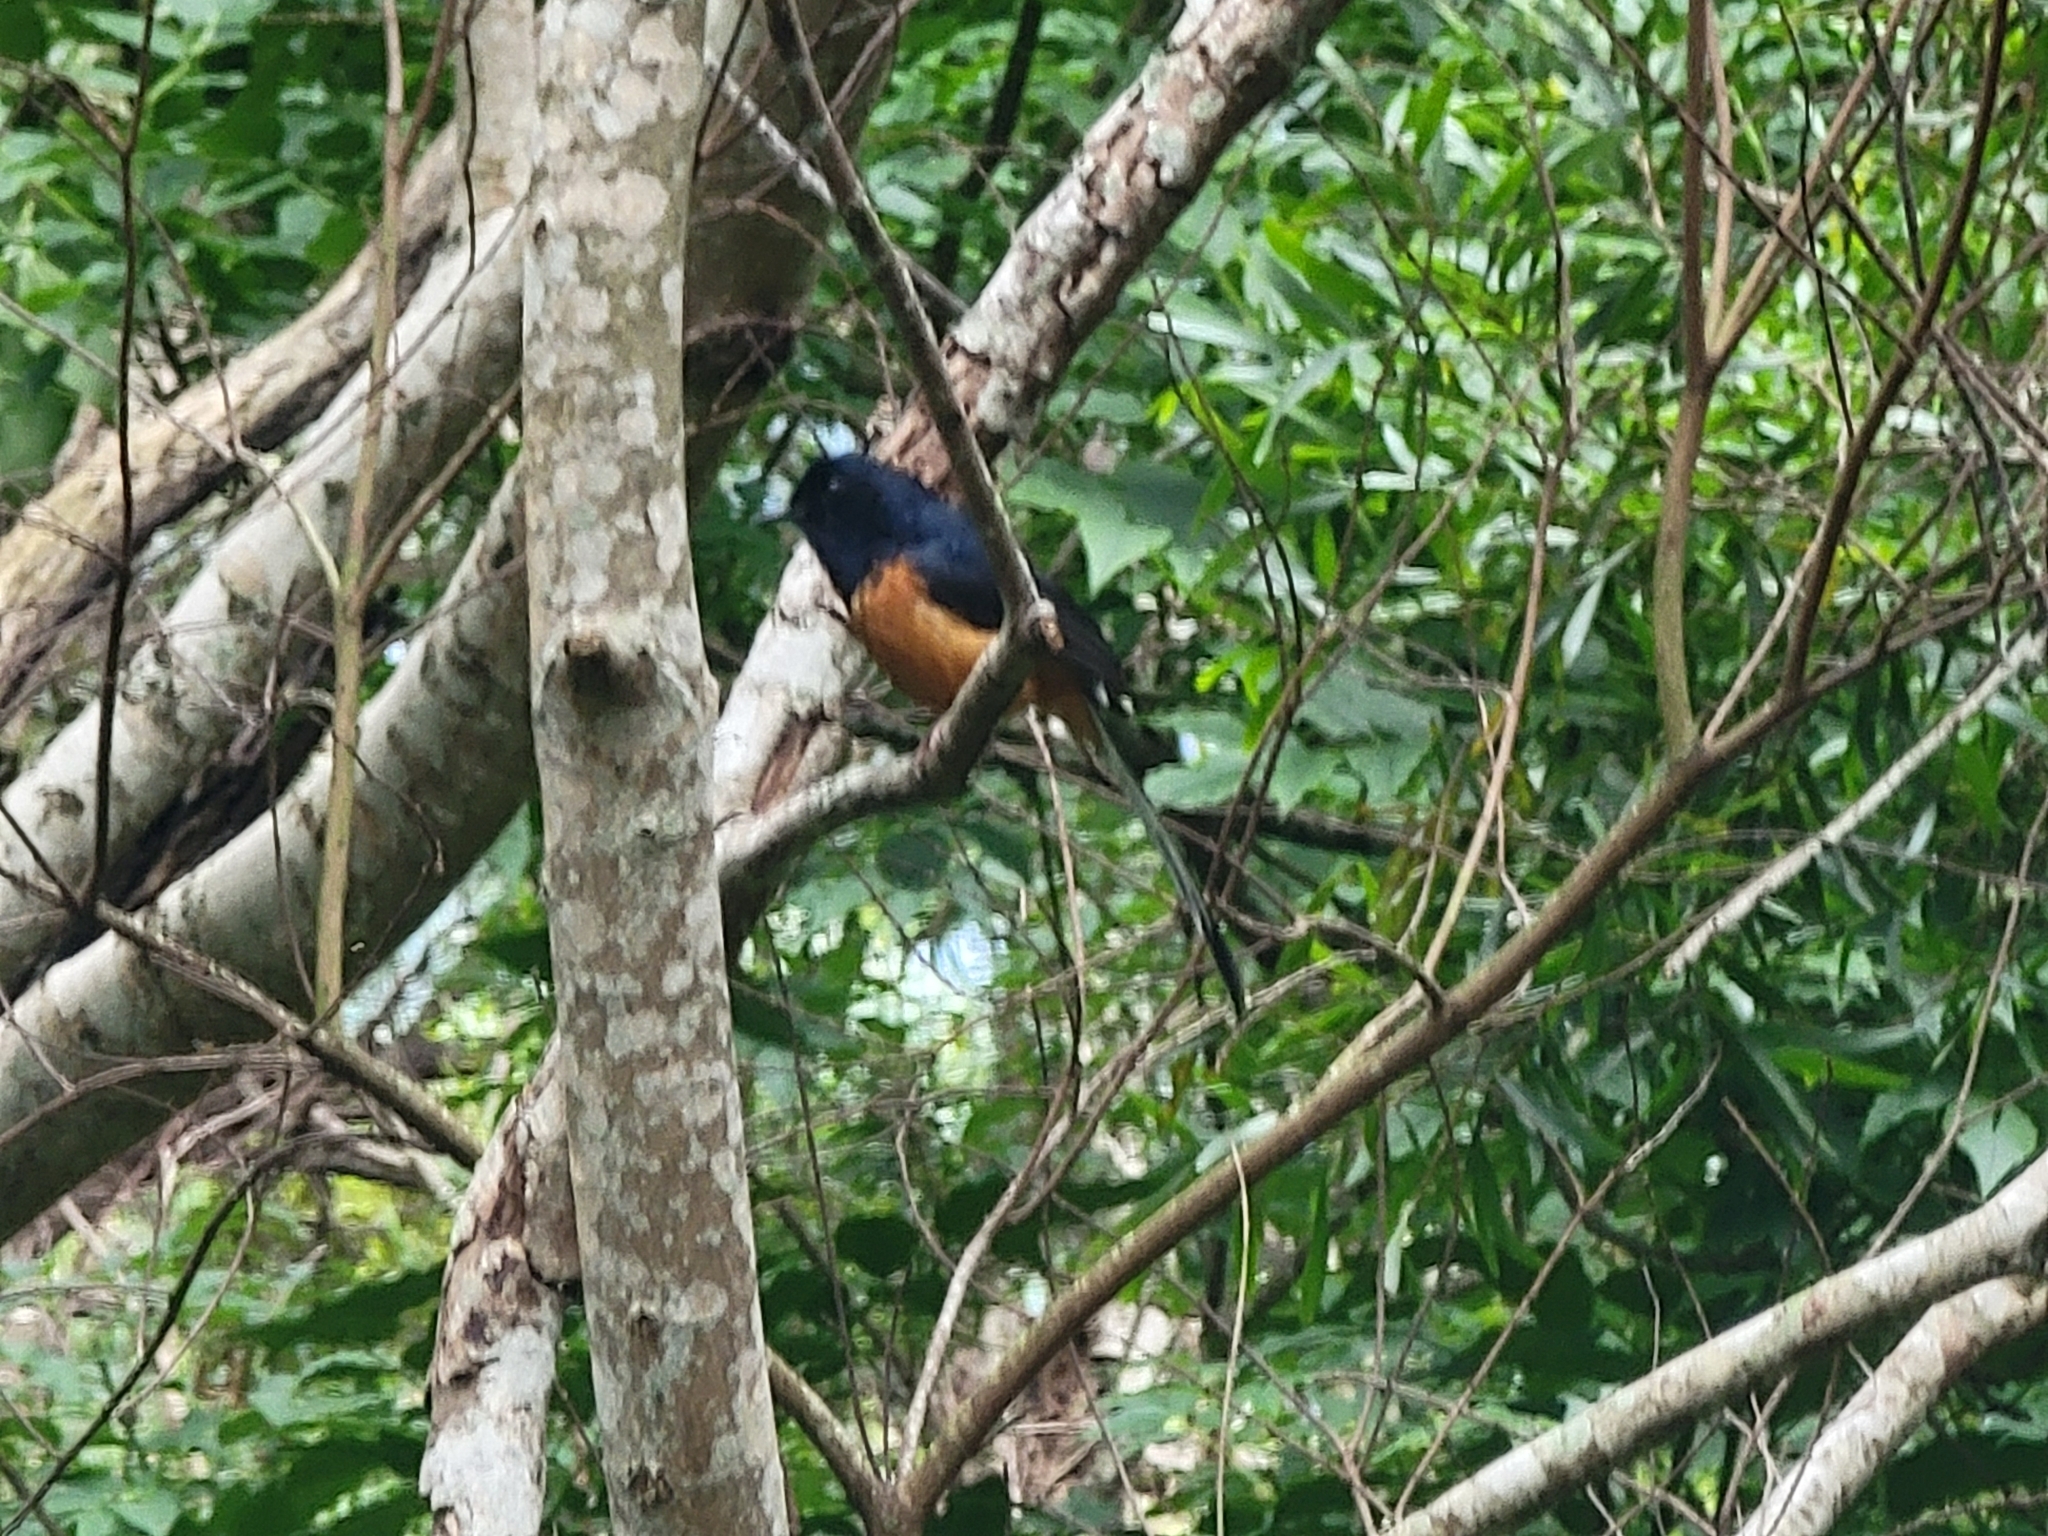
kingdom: Animalia
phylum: Chordata
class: Aves
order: Passeriformes
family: Muscicapidae
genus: Copsychus
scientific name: Copsychus malabaricus
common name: White-rumped shama
